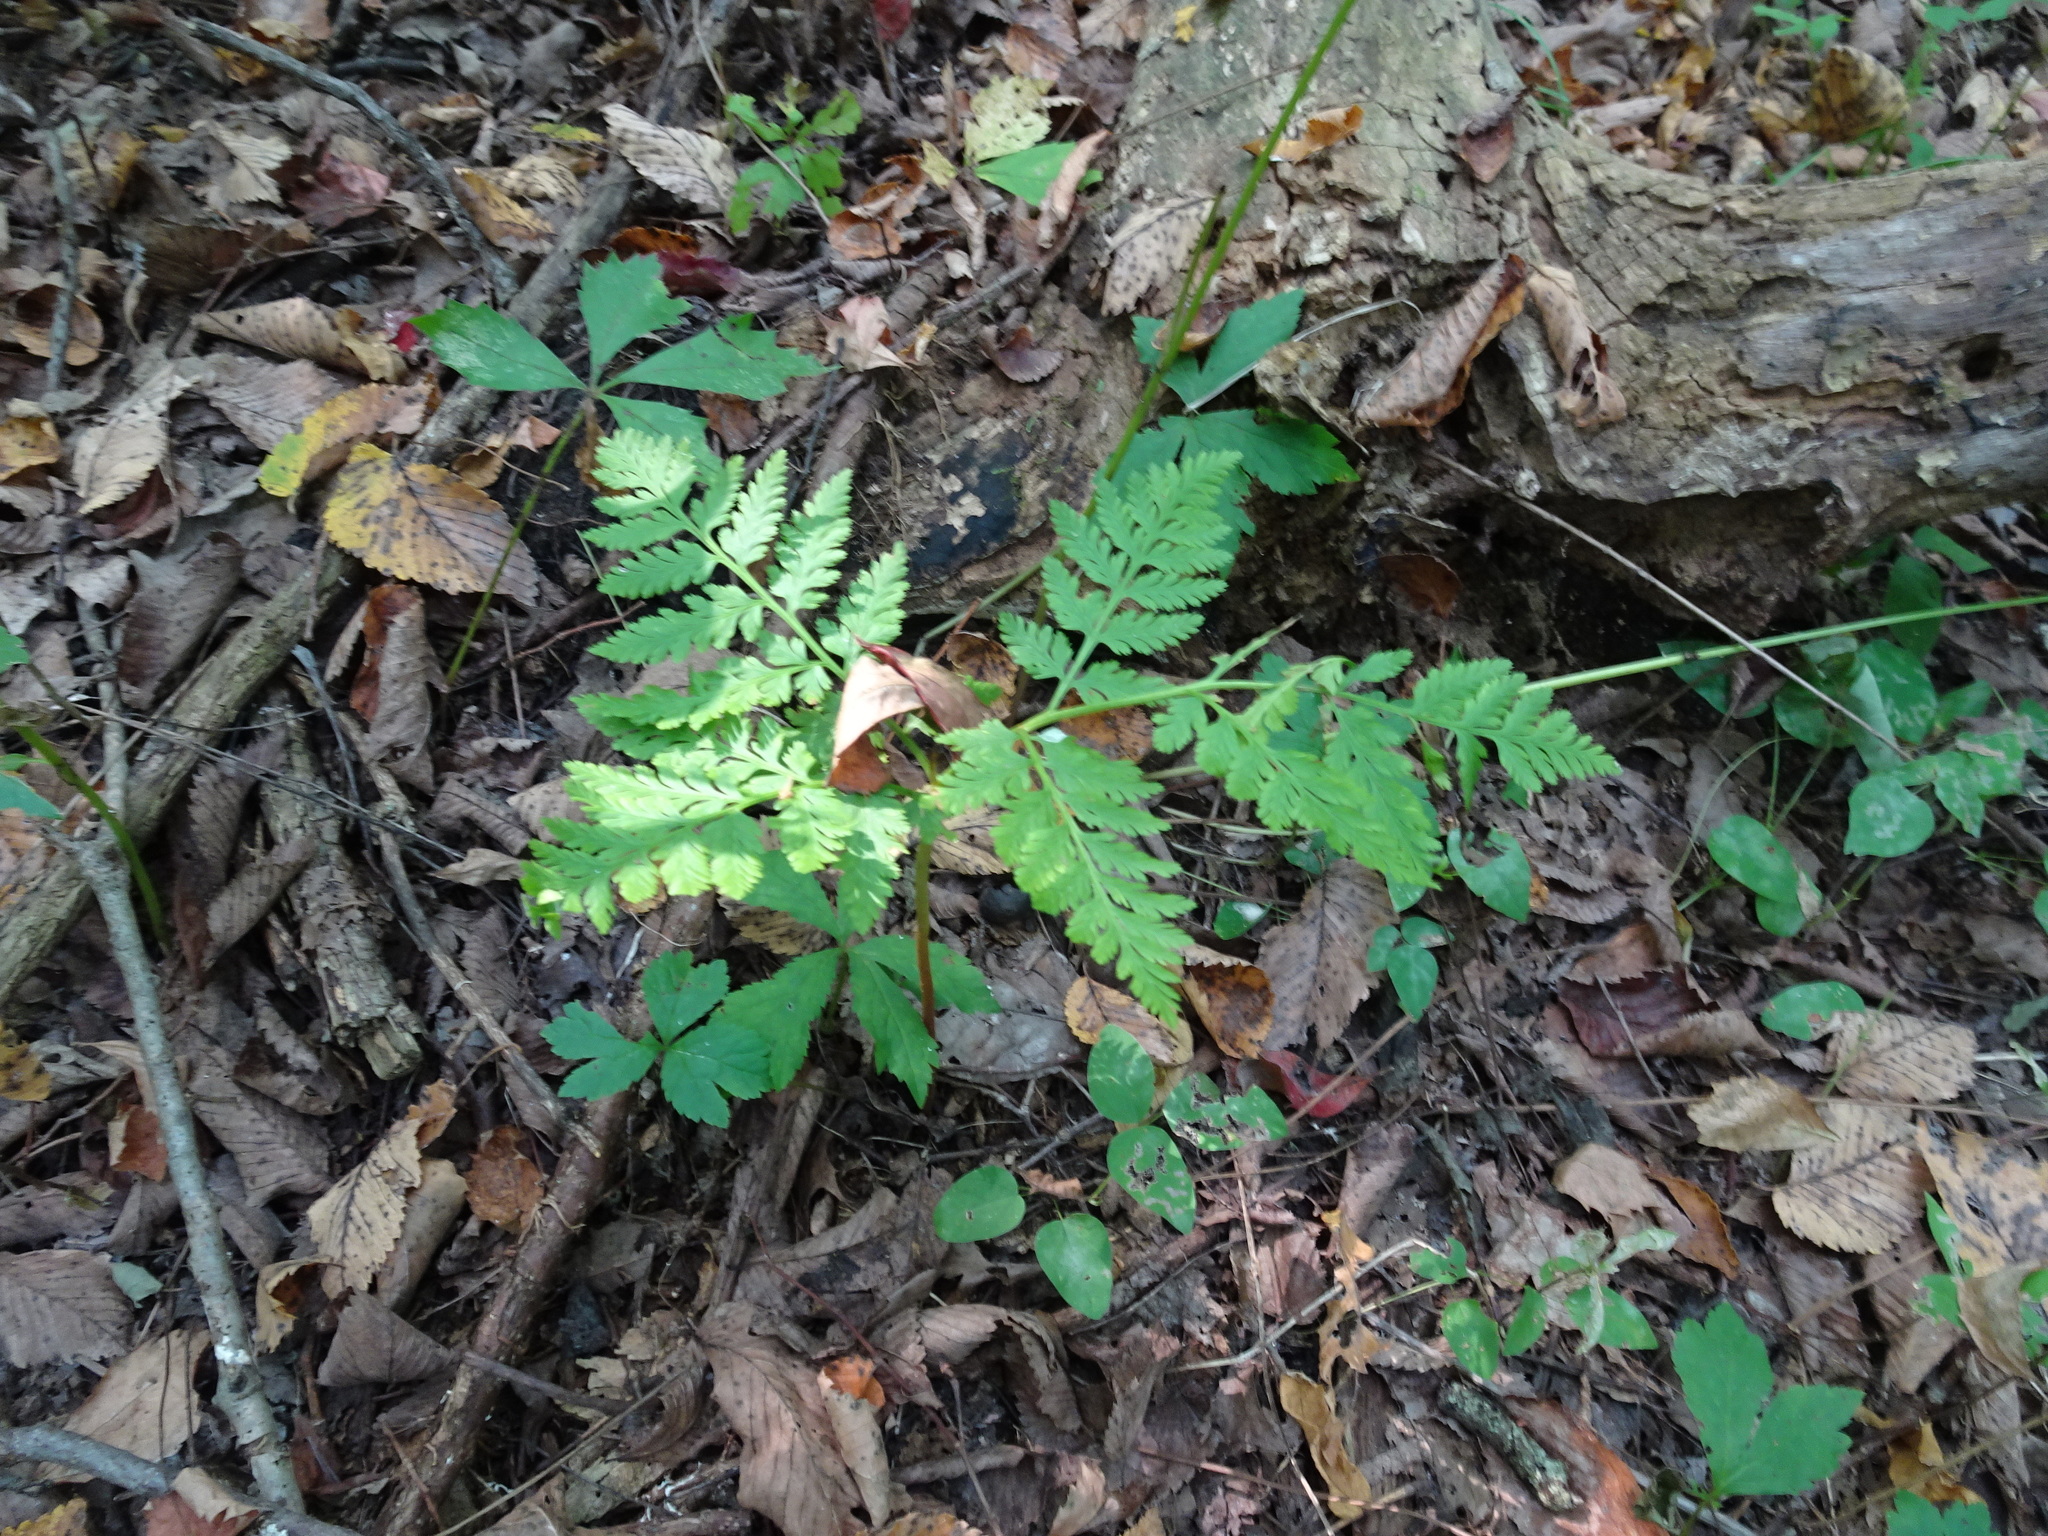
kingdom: Plantae
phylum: Tracheophyta
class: Polypodiopsida
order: Ophioglossales
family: Ophioglossaceae
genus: Botrypus
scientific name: Botrypus virginianus
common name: Common grapefern
